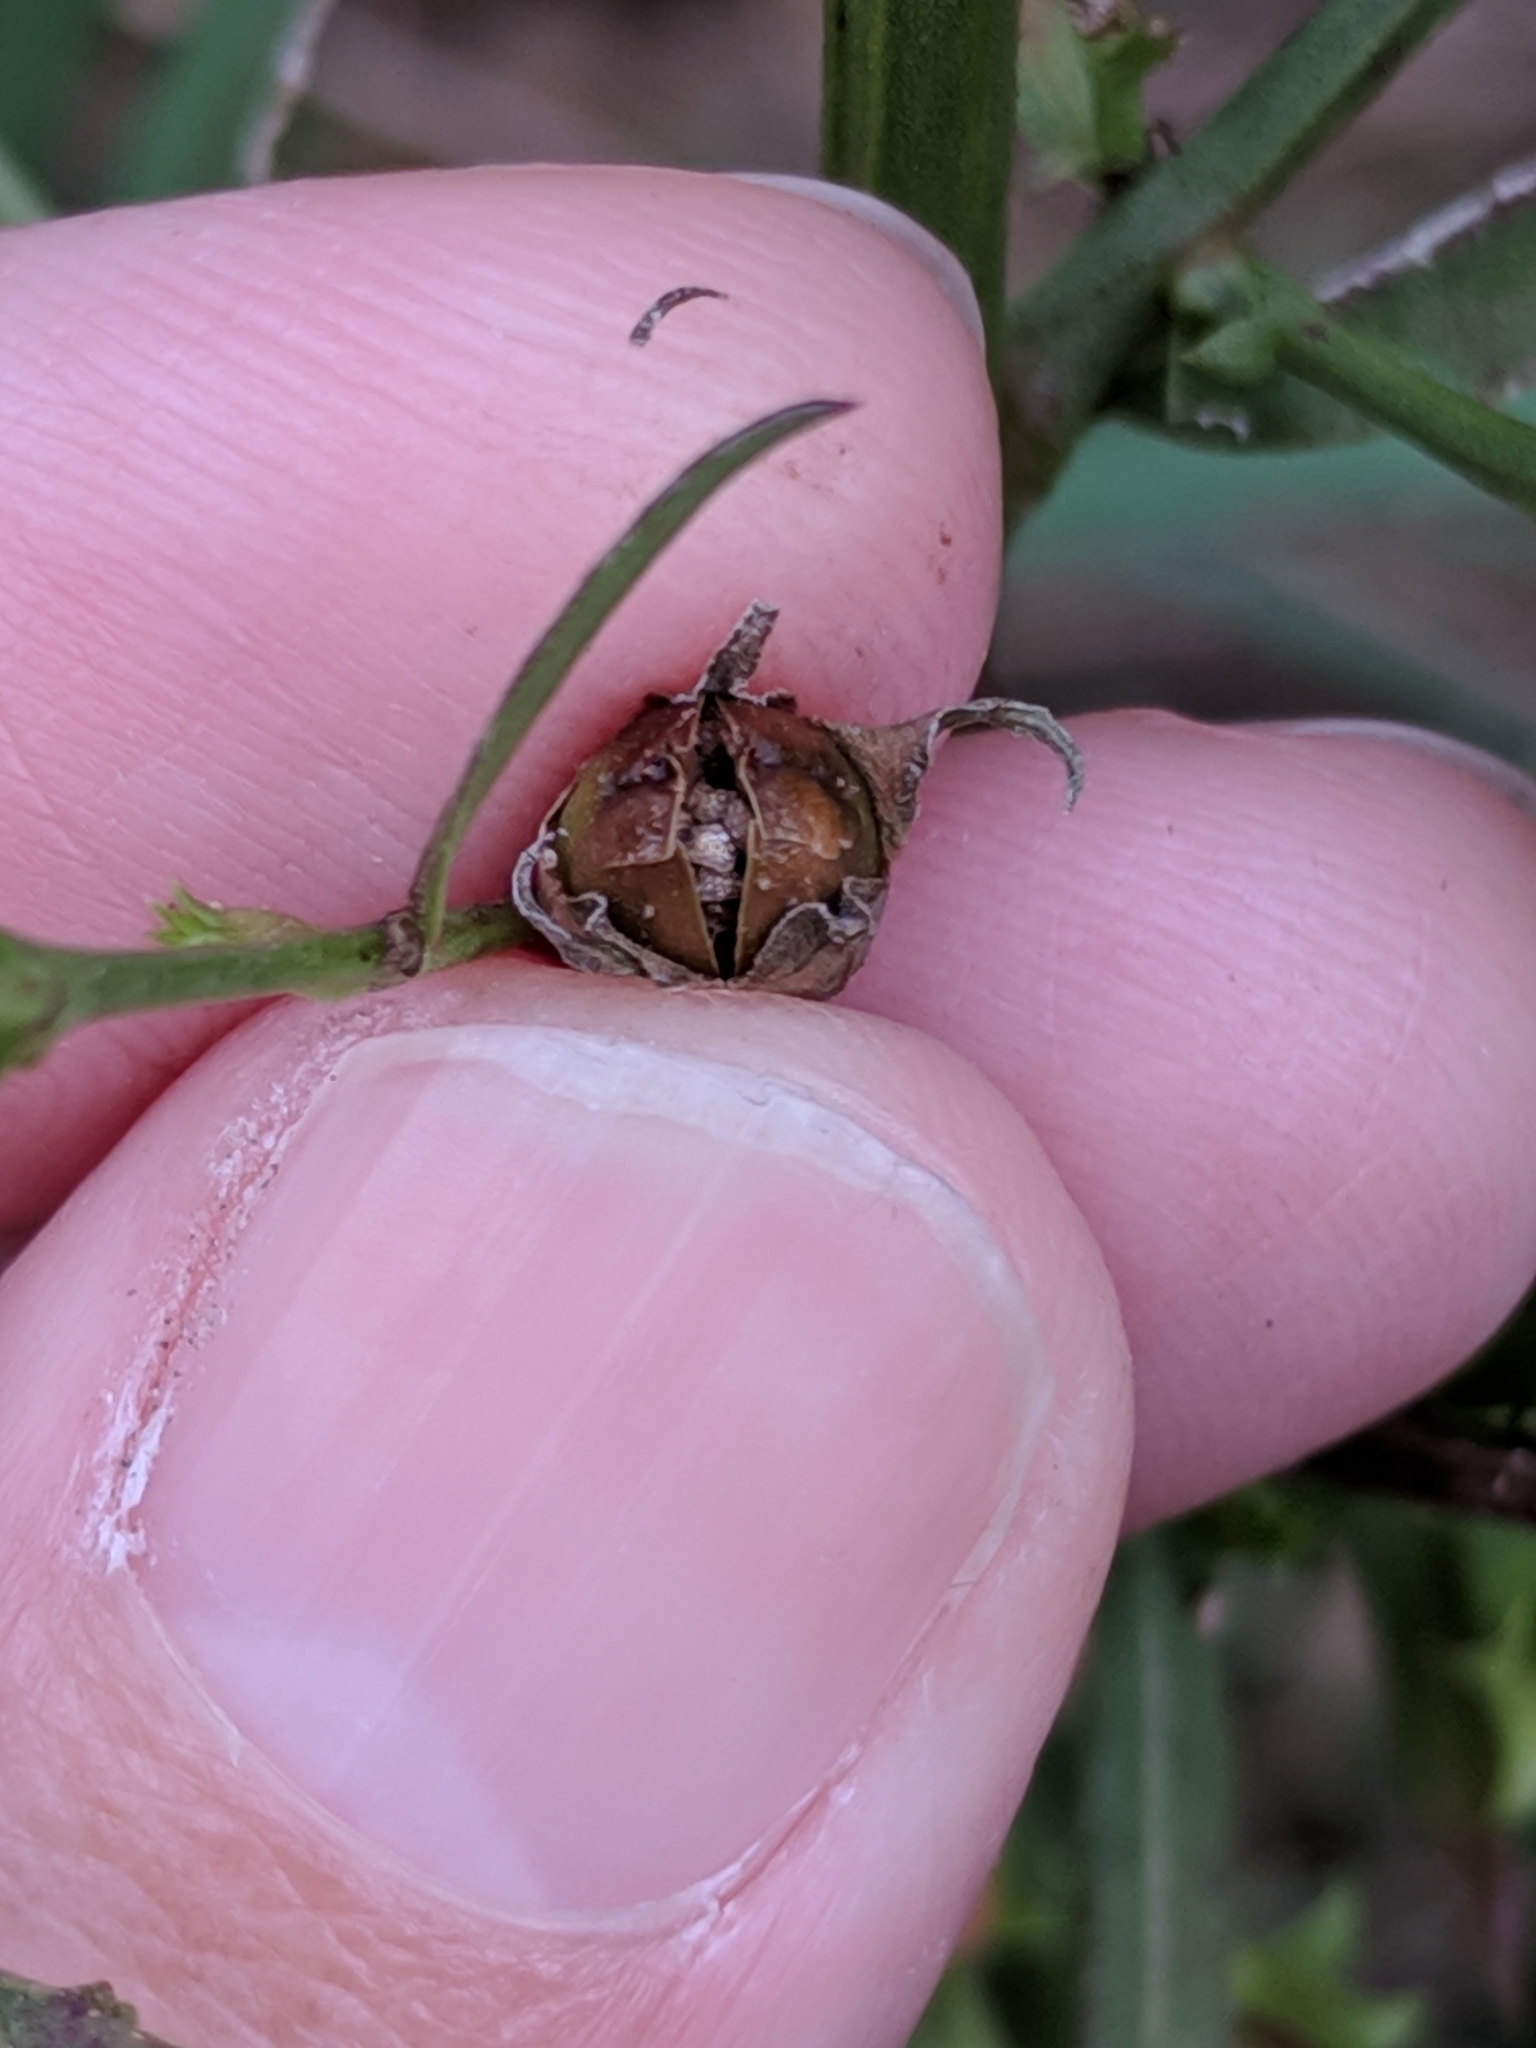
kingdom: Plantae
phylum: Tracheophyta
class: Magnoliopsida
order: Lamiales
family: Orobanchaceae
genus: Agalinis
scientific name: Agalinis heterophylla
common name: Prairie agalinis
